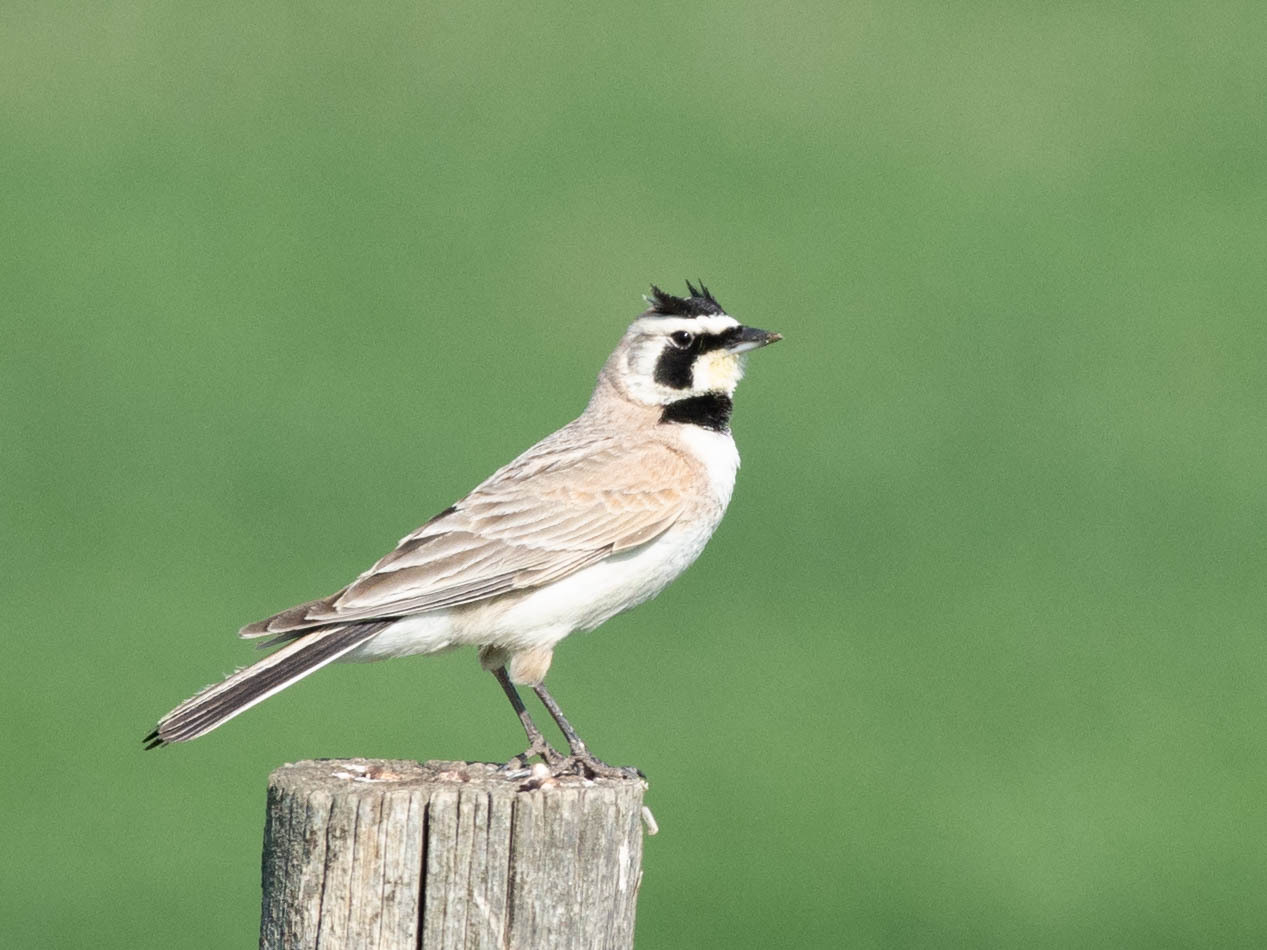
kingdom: Animalia
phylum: Chordata
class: Aves
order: Passeriformes
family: Alaudidae
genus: Eremophila
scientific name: Eremophila alpestris
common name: Horned lark
